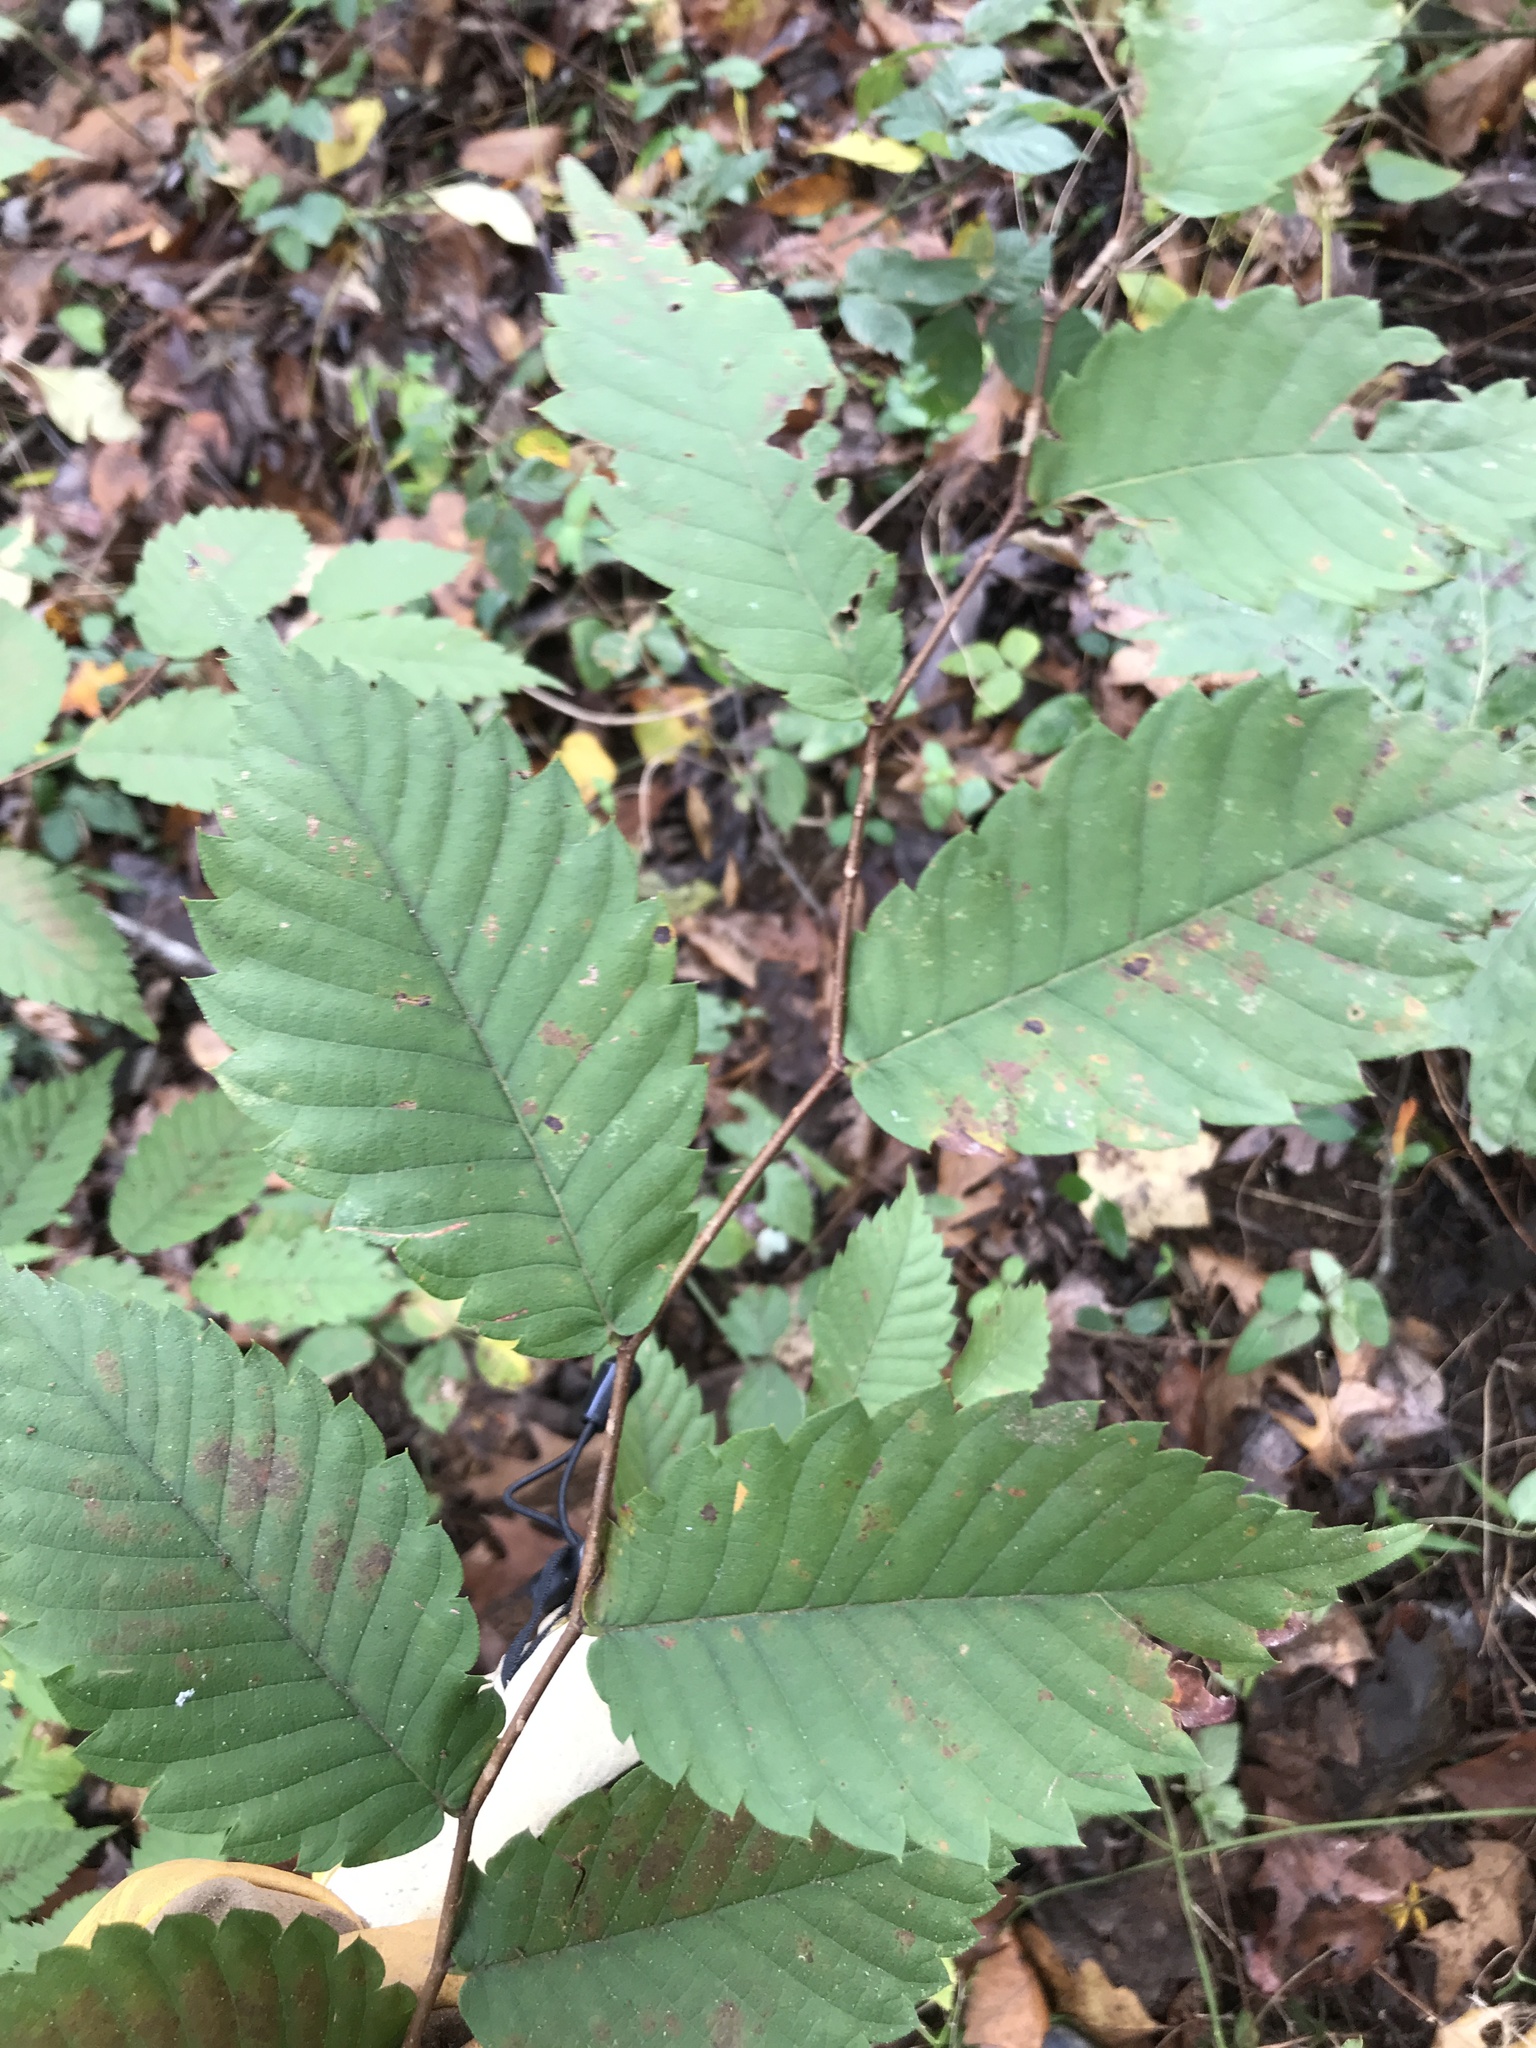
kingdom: Plantae
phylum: Tracheophyta
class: Magnoliopsida
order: Rosales
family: Ulmaceae
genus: Ulmus
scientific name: Ulmus americana
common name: American elm
